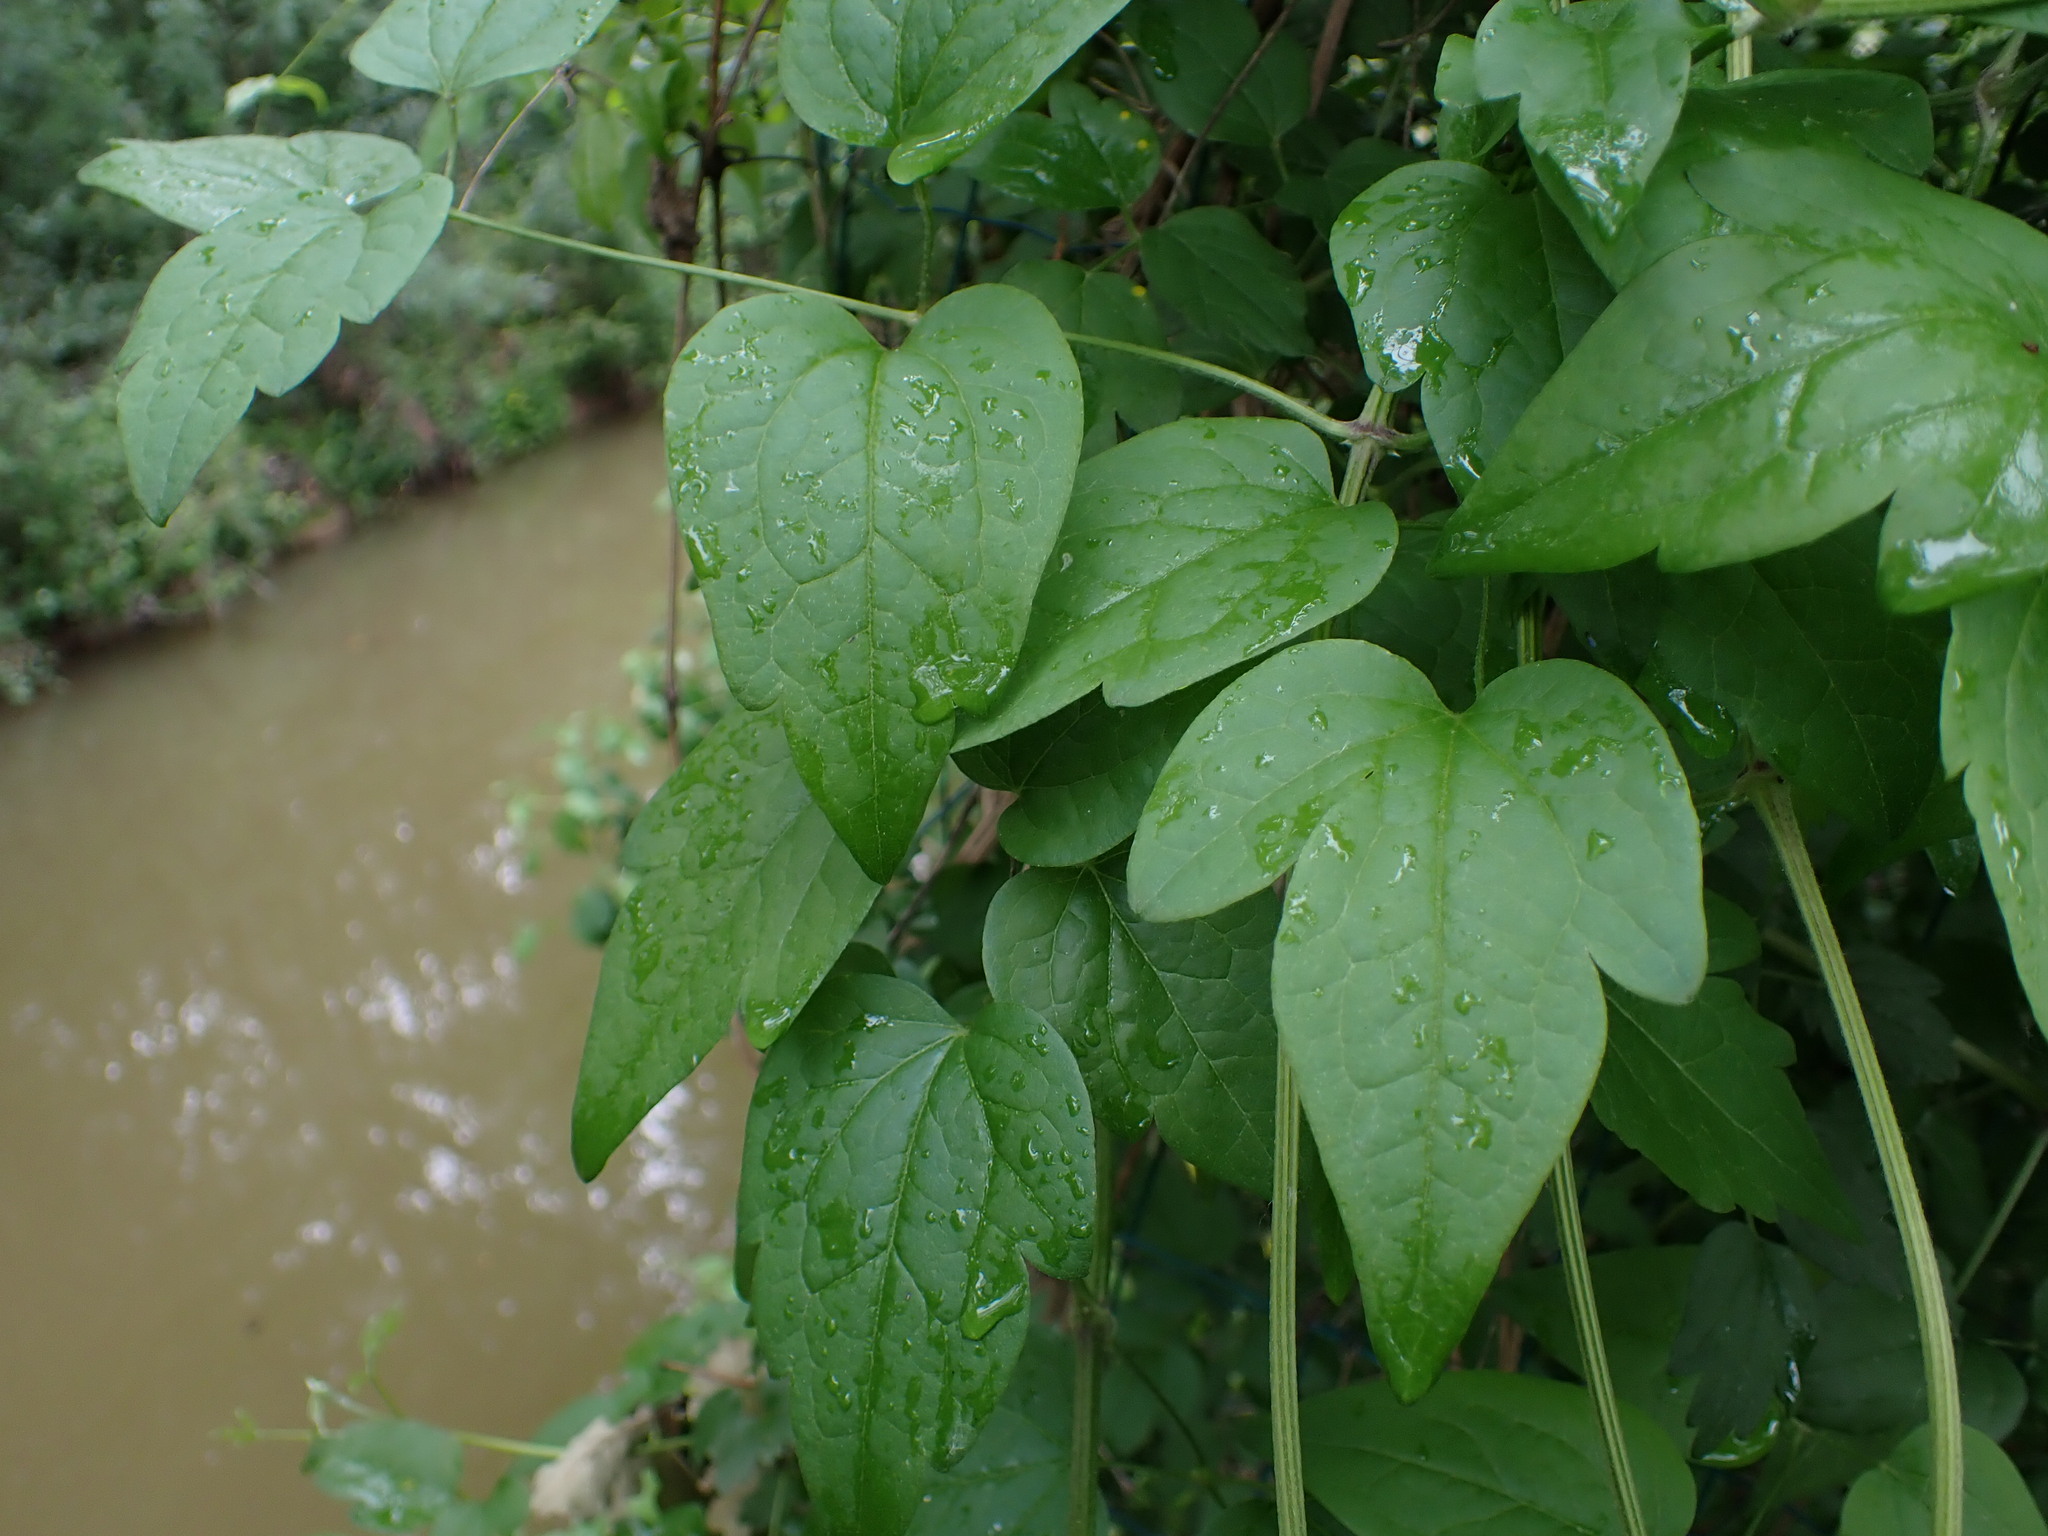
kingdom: Plantae
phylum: Tracheophyta
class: Magnoliopsida
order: Ranunculales
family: Ranunculaceae
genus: Clematis
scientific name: Clematis vitalba
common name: Evergreen clematis
